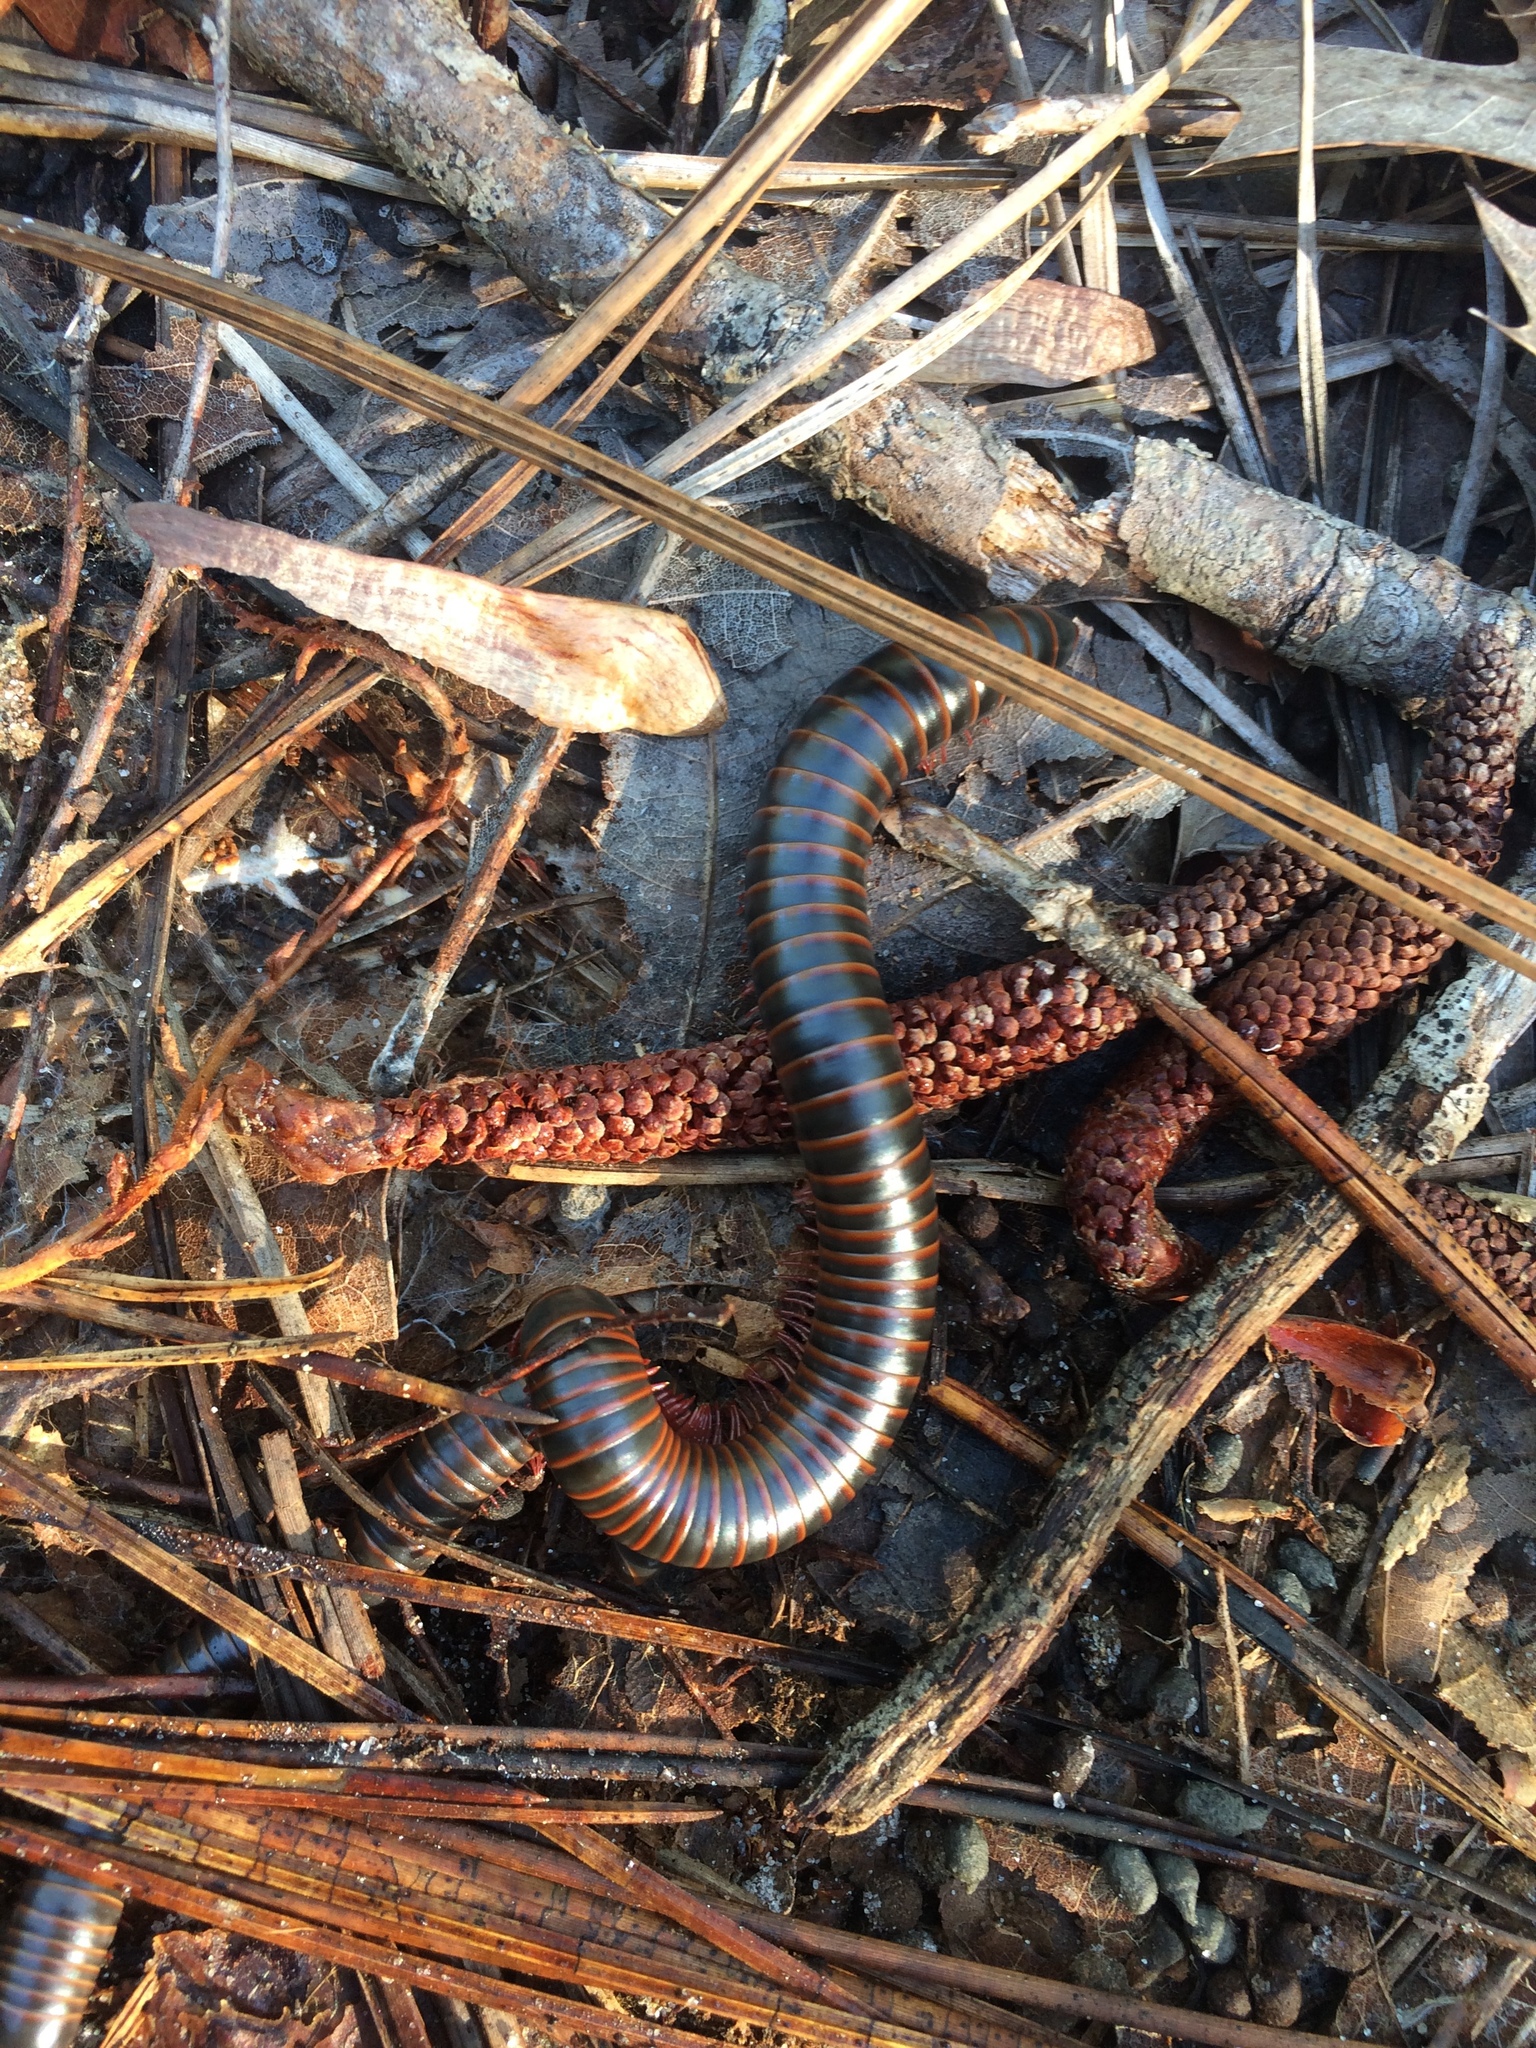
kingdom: Animalia
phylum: Arthropoda
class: Diplopoda
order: Spirobolida
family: Spirobolidae
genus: Narceus
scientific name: Narceus
